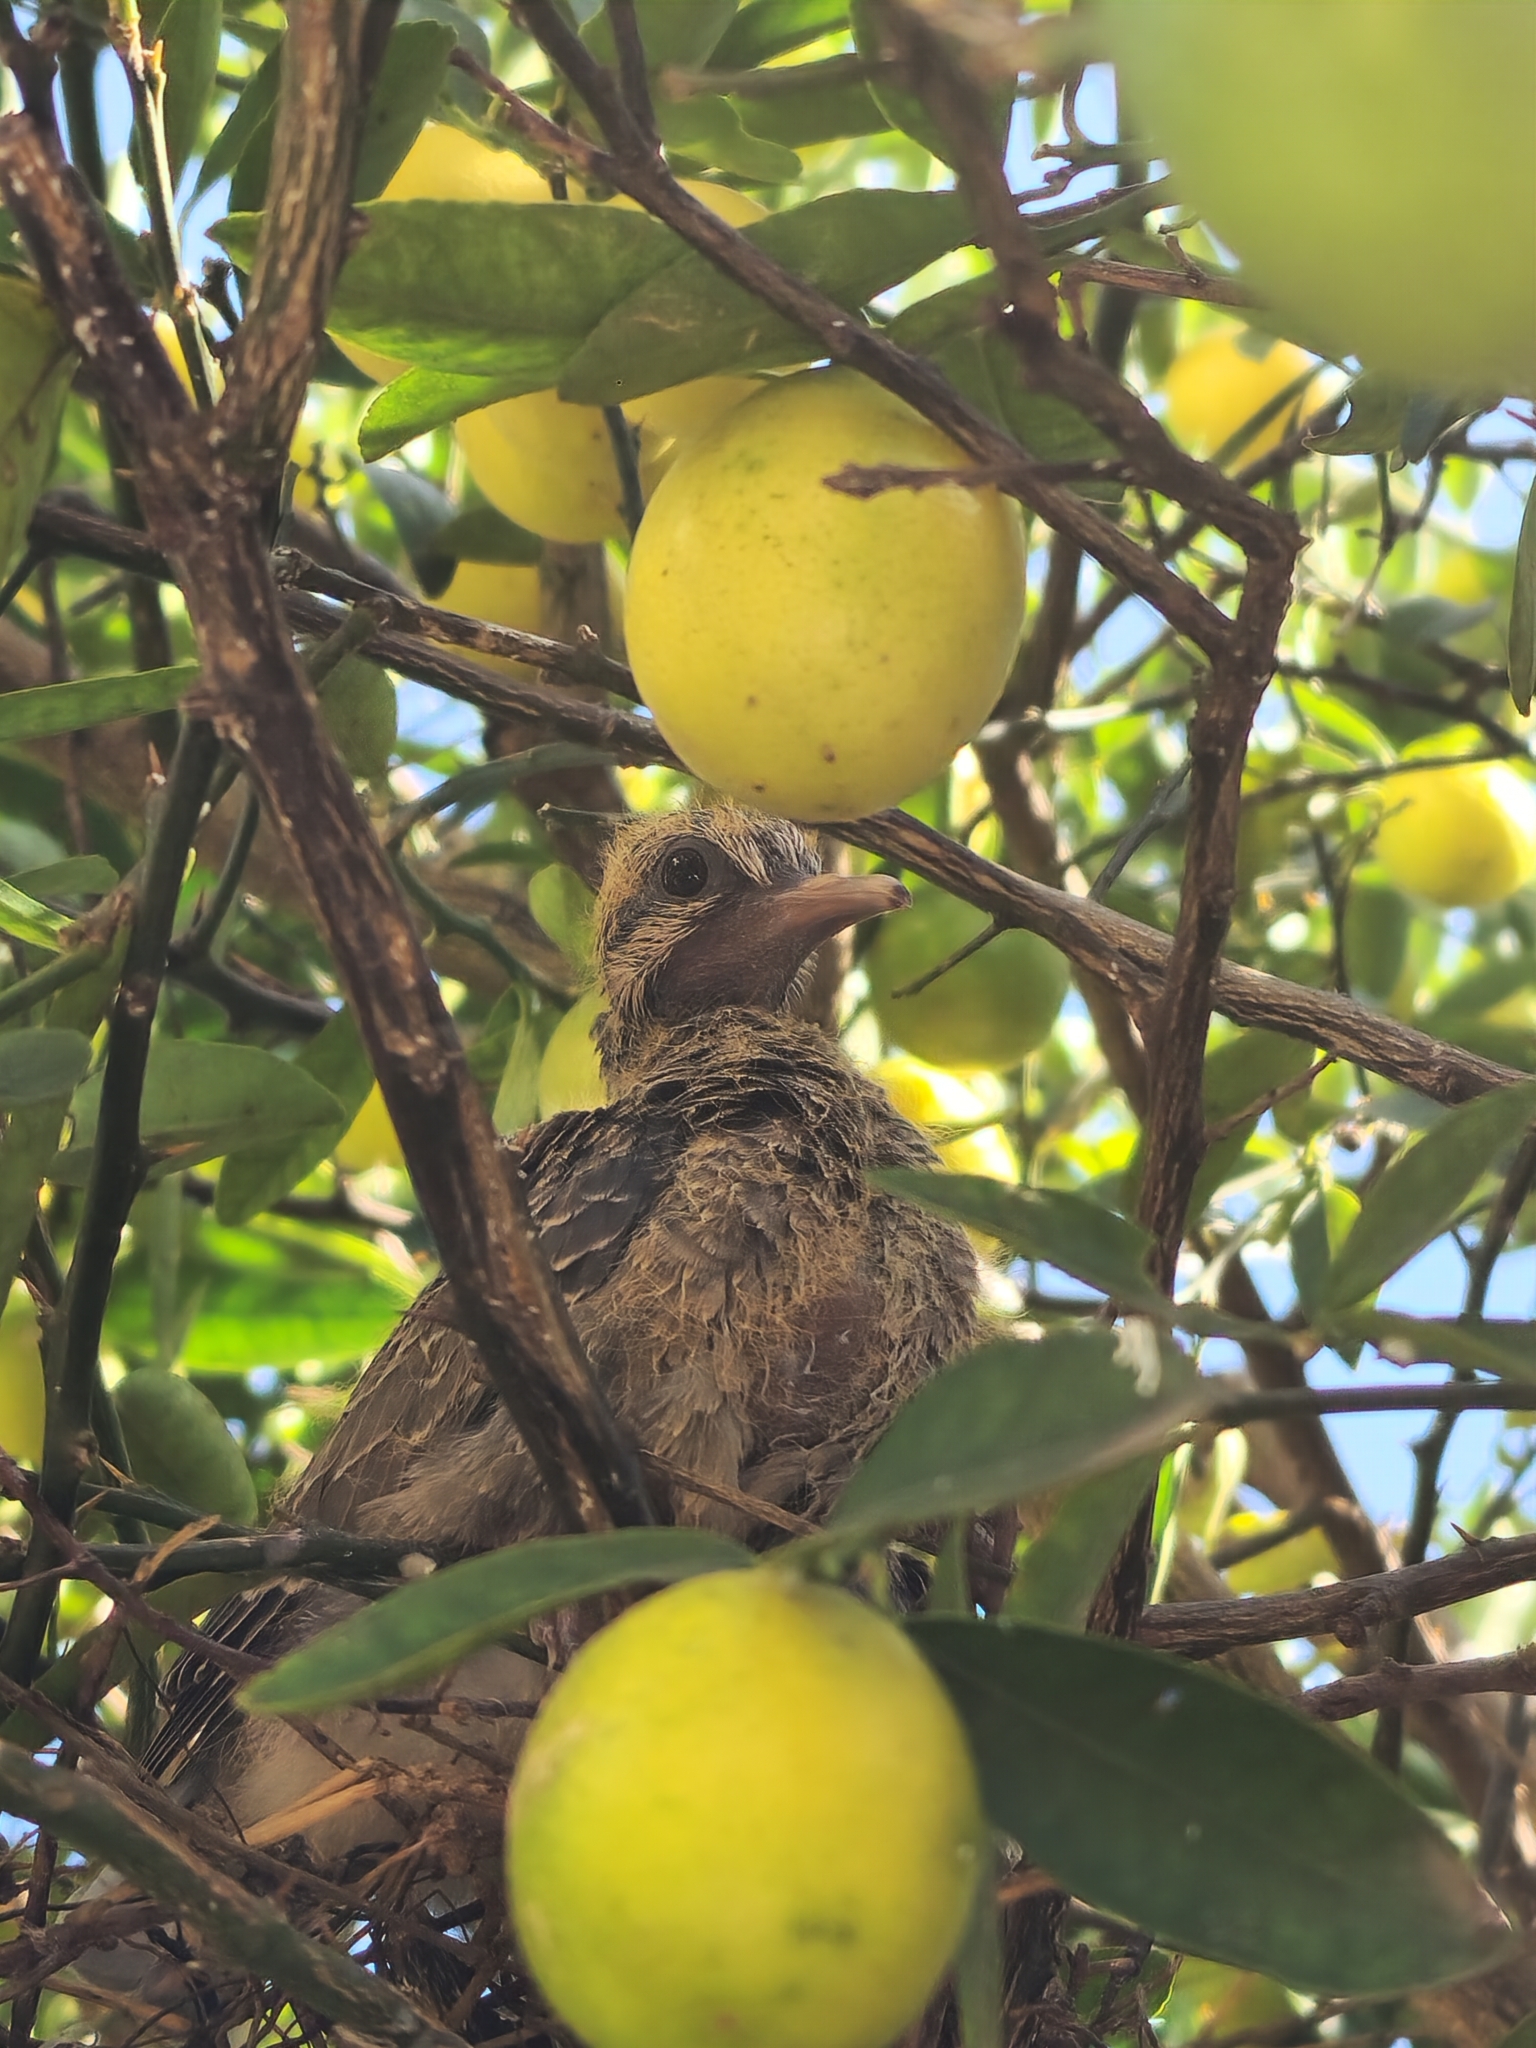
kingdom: Animalia
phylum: Chordata
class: Aves
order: Columbiformes
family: Columbidae
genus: Zenaida
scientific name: Zenaida auriculata
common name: Eared dove
